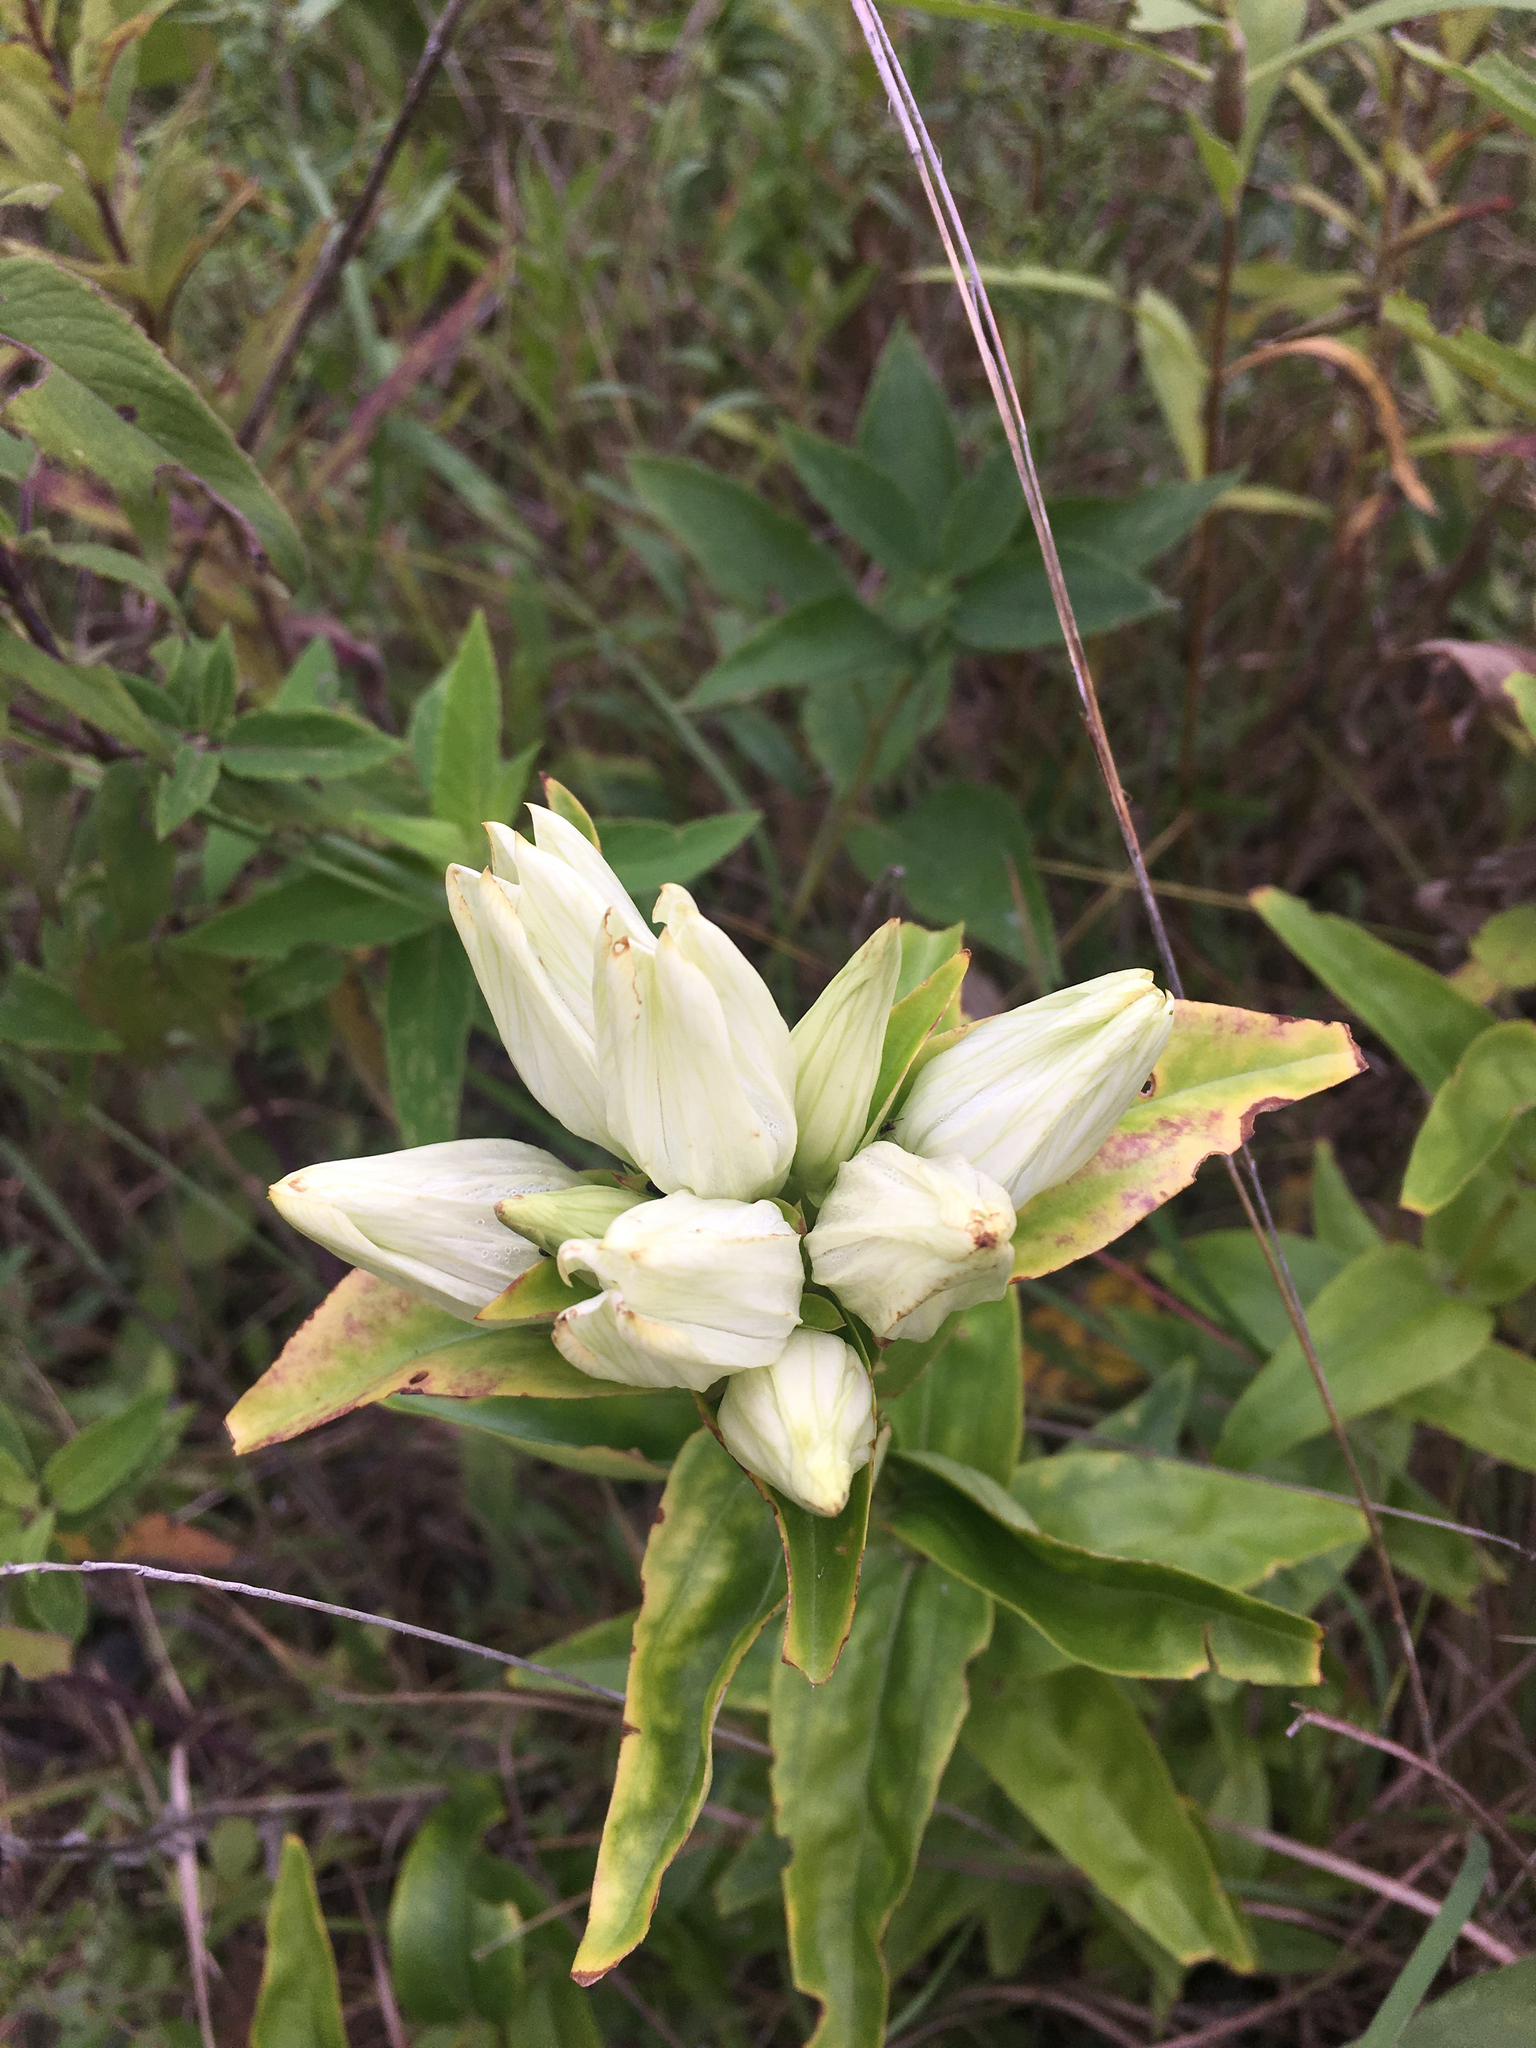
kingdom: Plantae
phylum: Tracheophyta
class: Magnoliopsida
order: Gentianales
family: Gentianaceae
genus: Gentiana
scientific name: Gentiana alba
